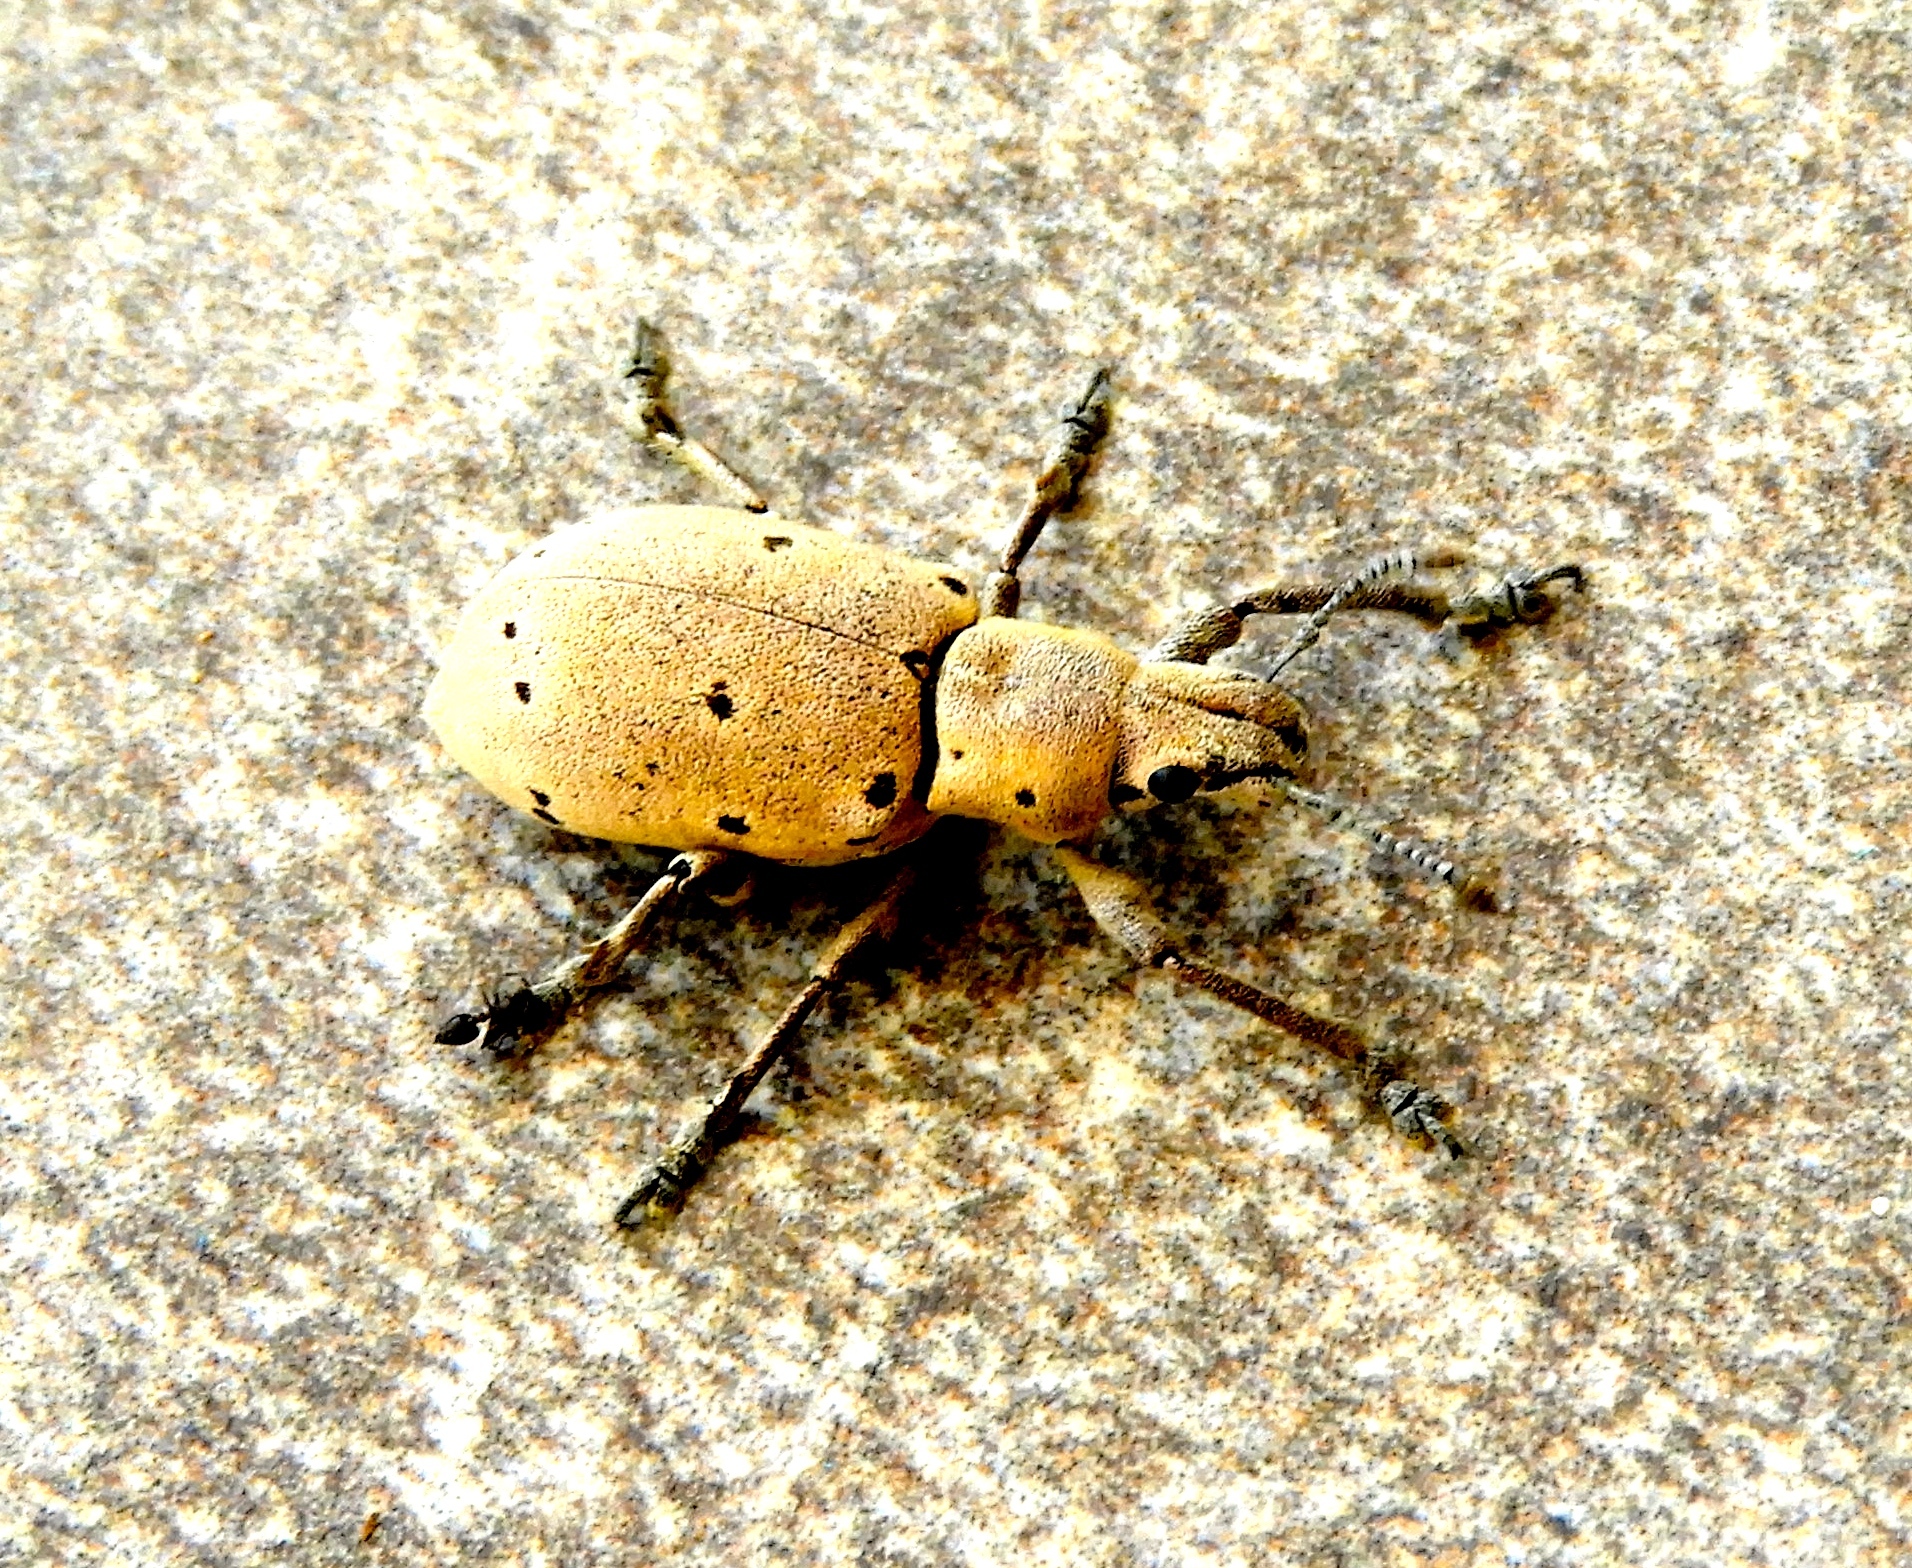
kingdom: Animalia
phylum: Arthropoda
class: Insecta
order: Coleoptera
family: Curculionidae
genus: Ericydeus
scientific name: Ericydeus forreri
